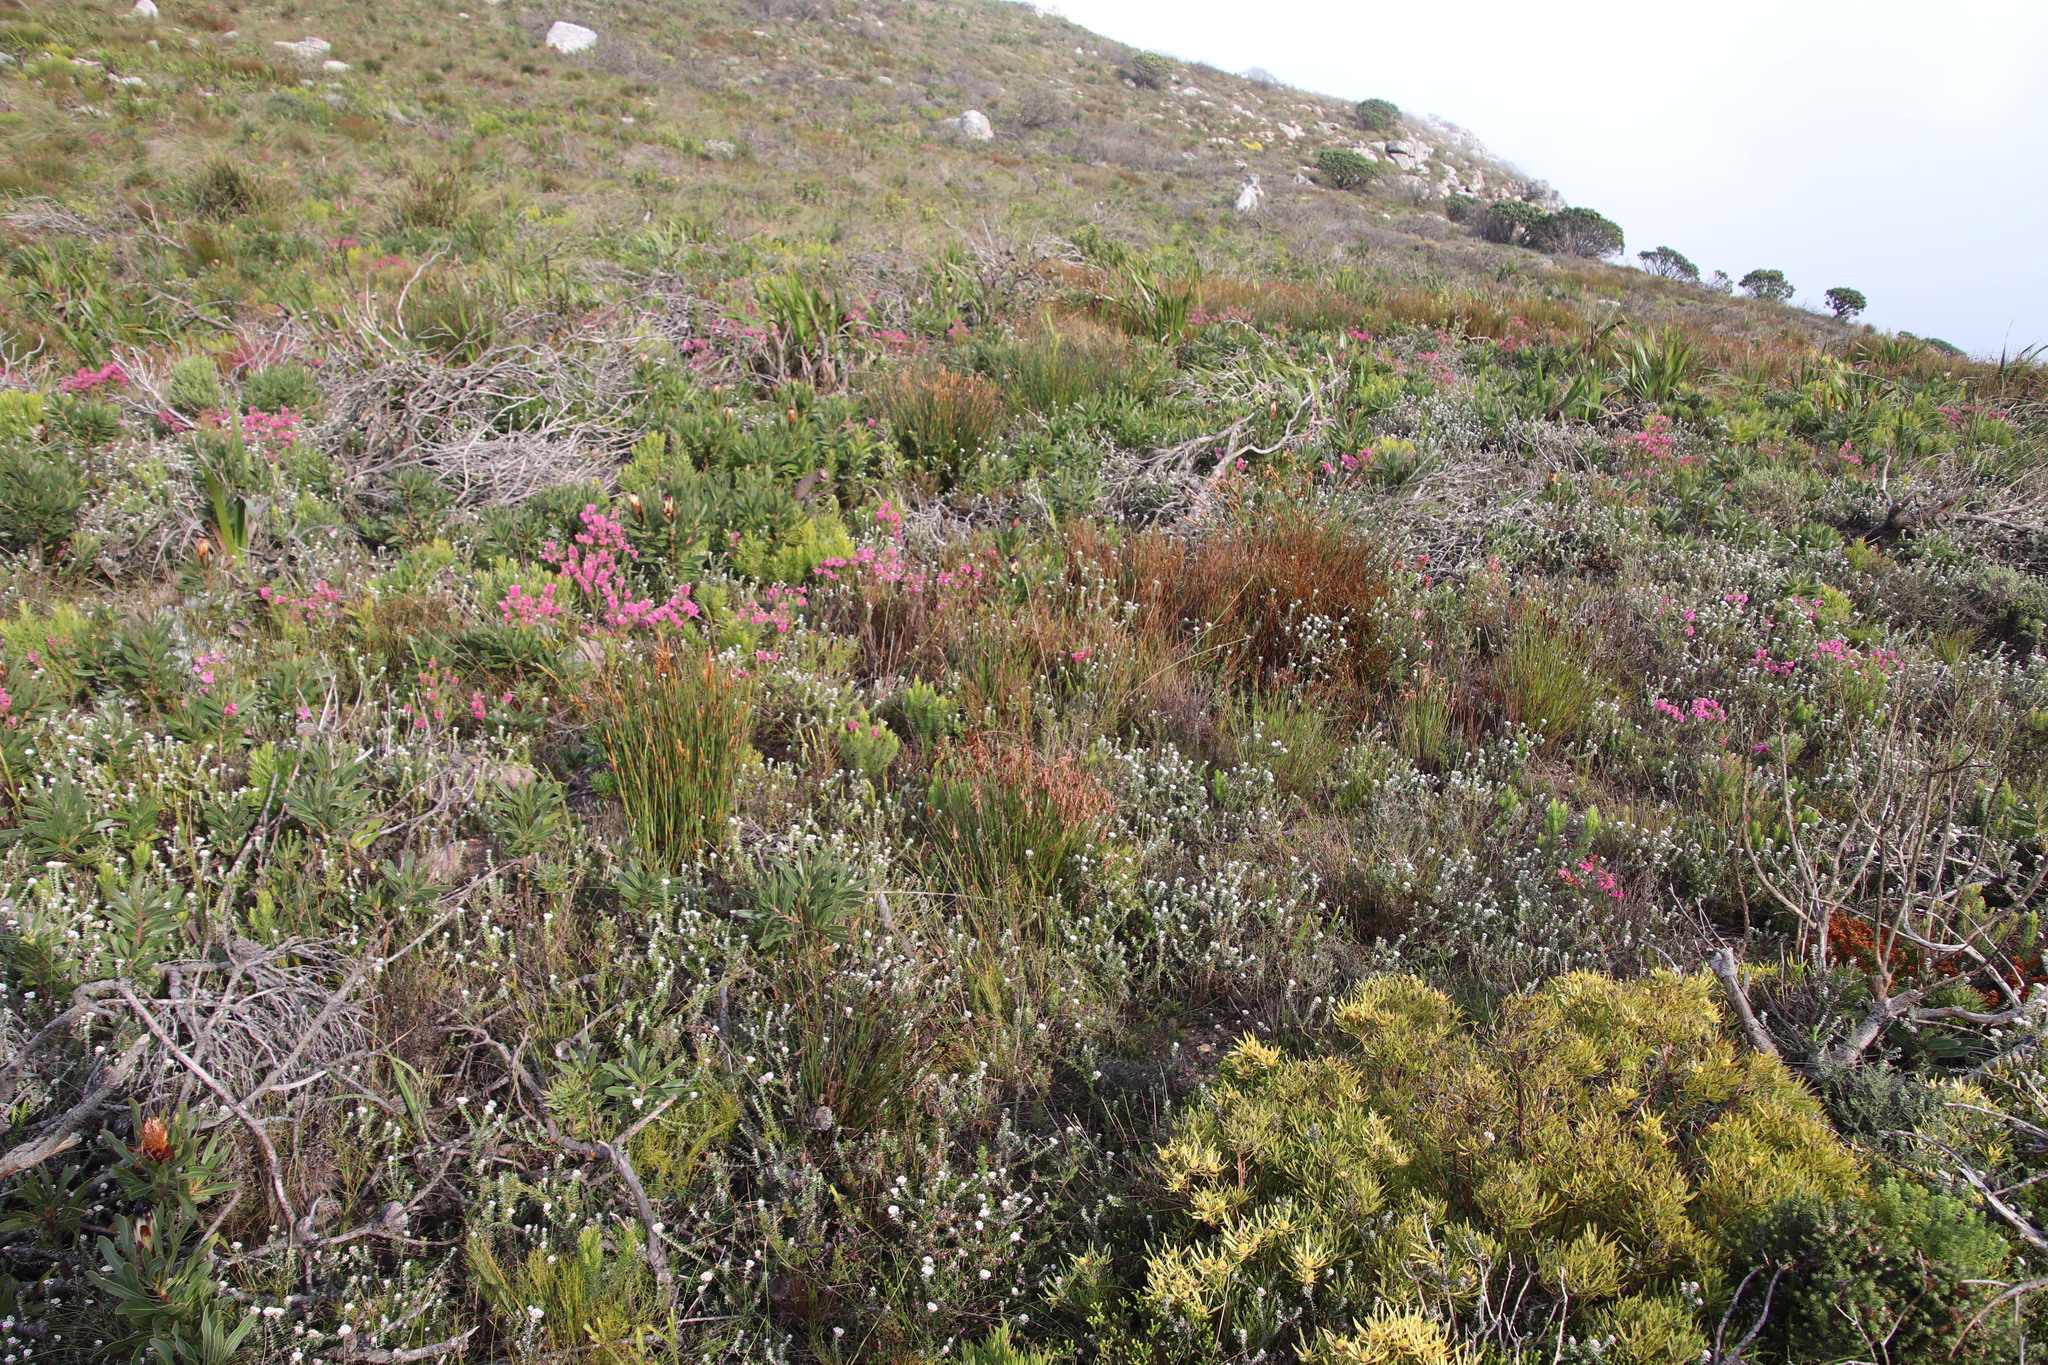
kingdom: Plantae
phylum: Tracheophyta
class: Magnoliopsida
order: Proteales
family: Proteaceae
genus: Leucadendron
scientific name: Leucadendron salignum
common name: Common sunshine conebush
